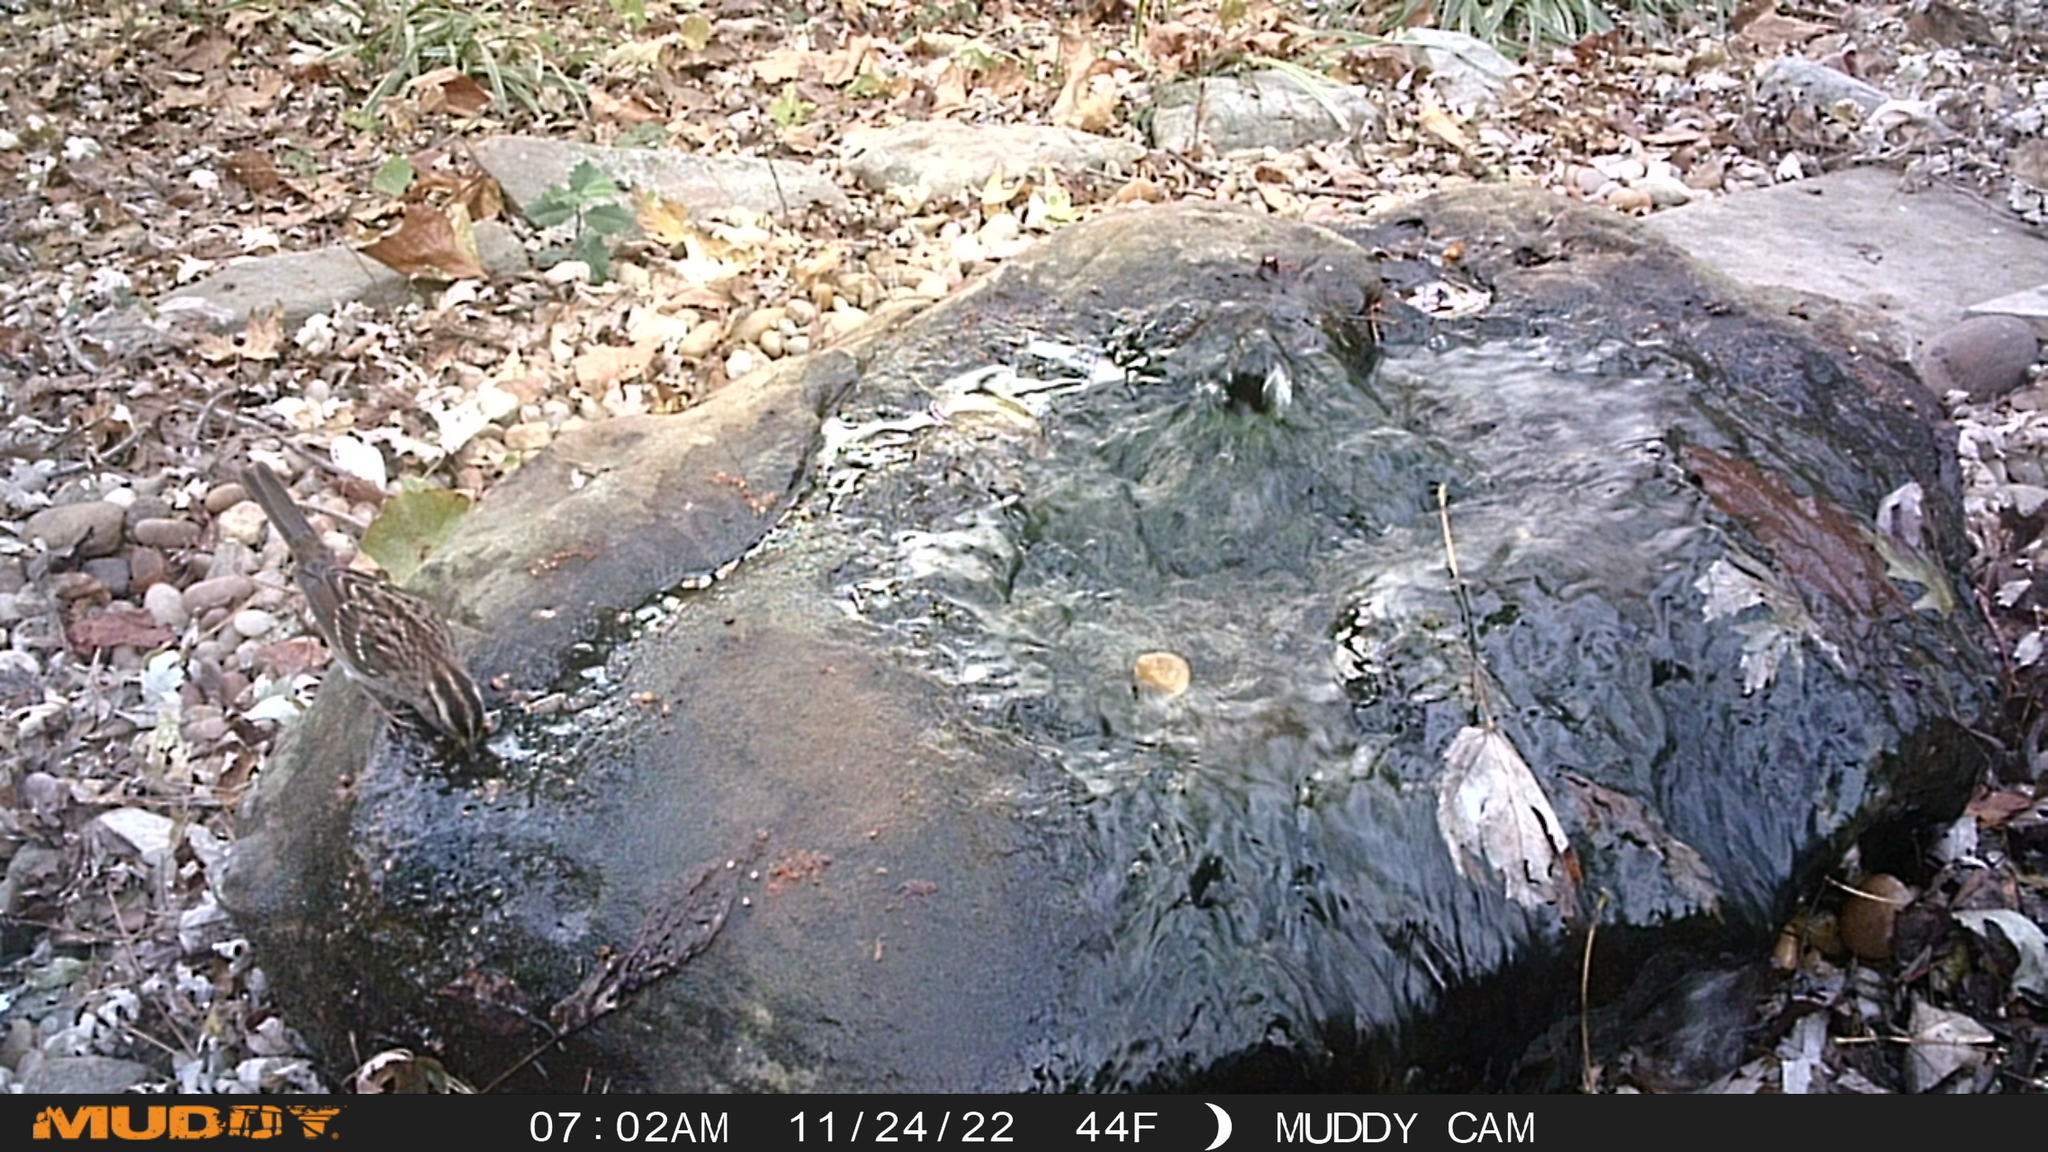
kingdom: Animalia
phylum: Chordata
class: Aves
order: Passeriformes
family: Passerellidae
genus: Zonotrichia
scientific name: Zonotrichia albicollis
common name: White-throated sparrow
